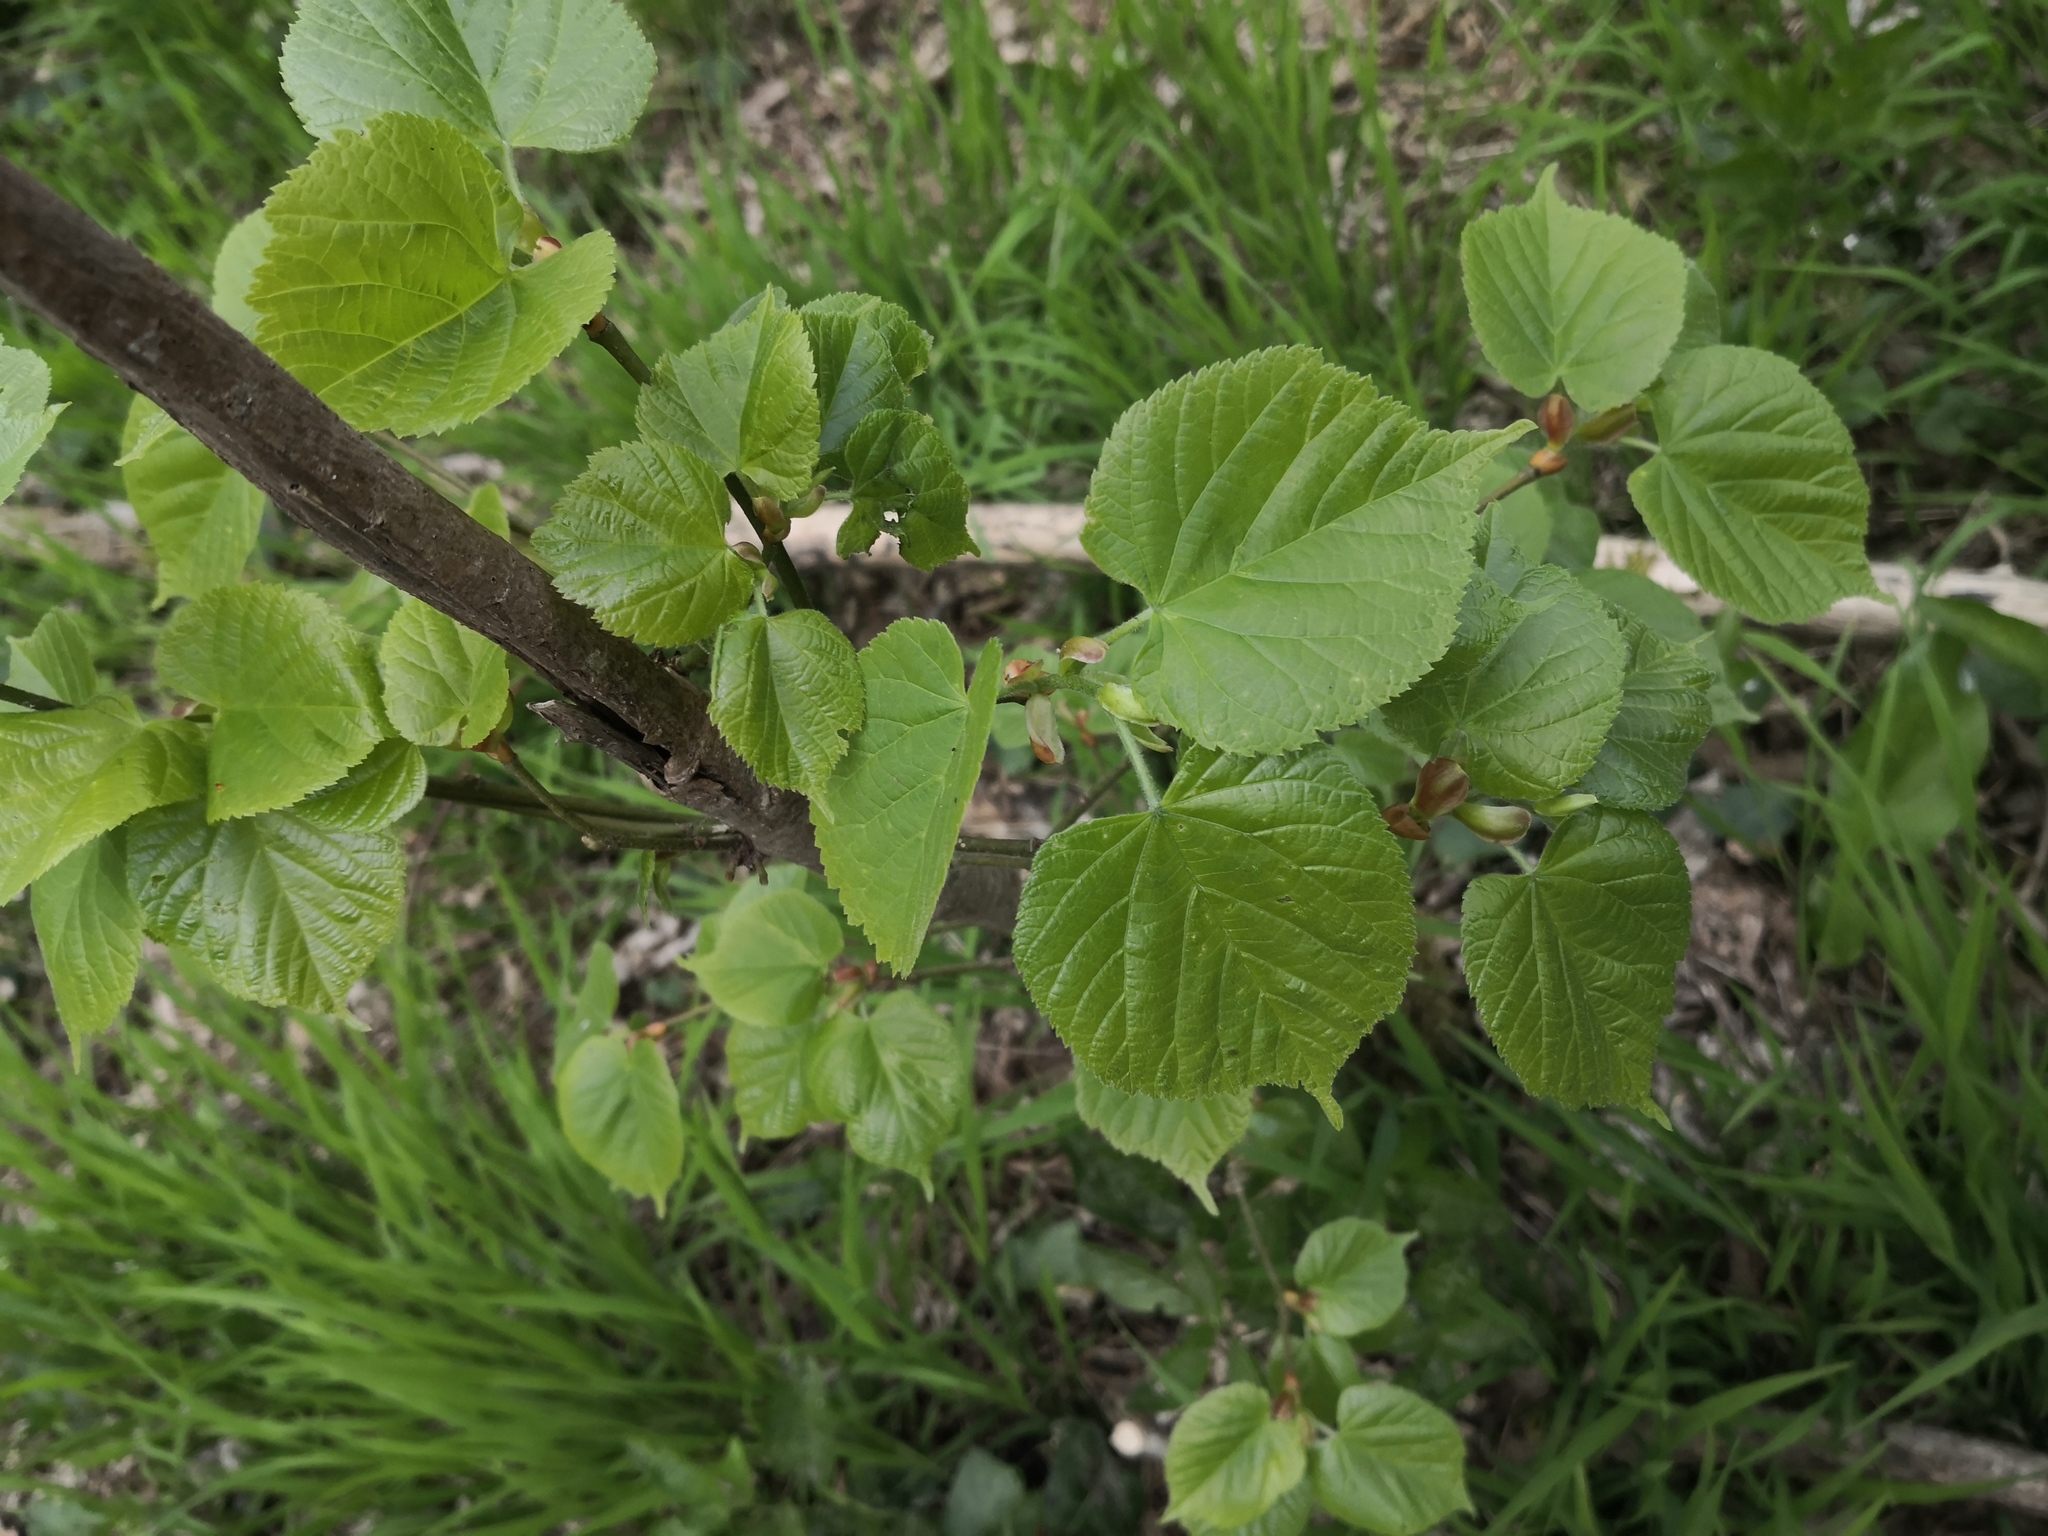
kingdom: Plantae
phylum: Tracheophyta
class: Magnoliopsida
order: Malvales
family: Malvaceae
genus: Tilia
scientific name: Tilia cordata
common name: Small-leaved lime
